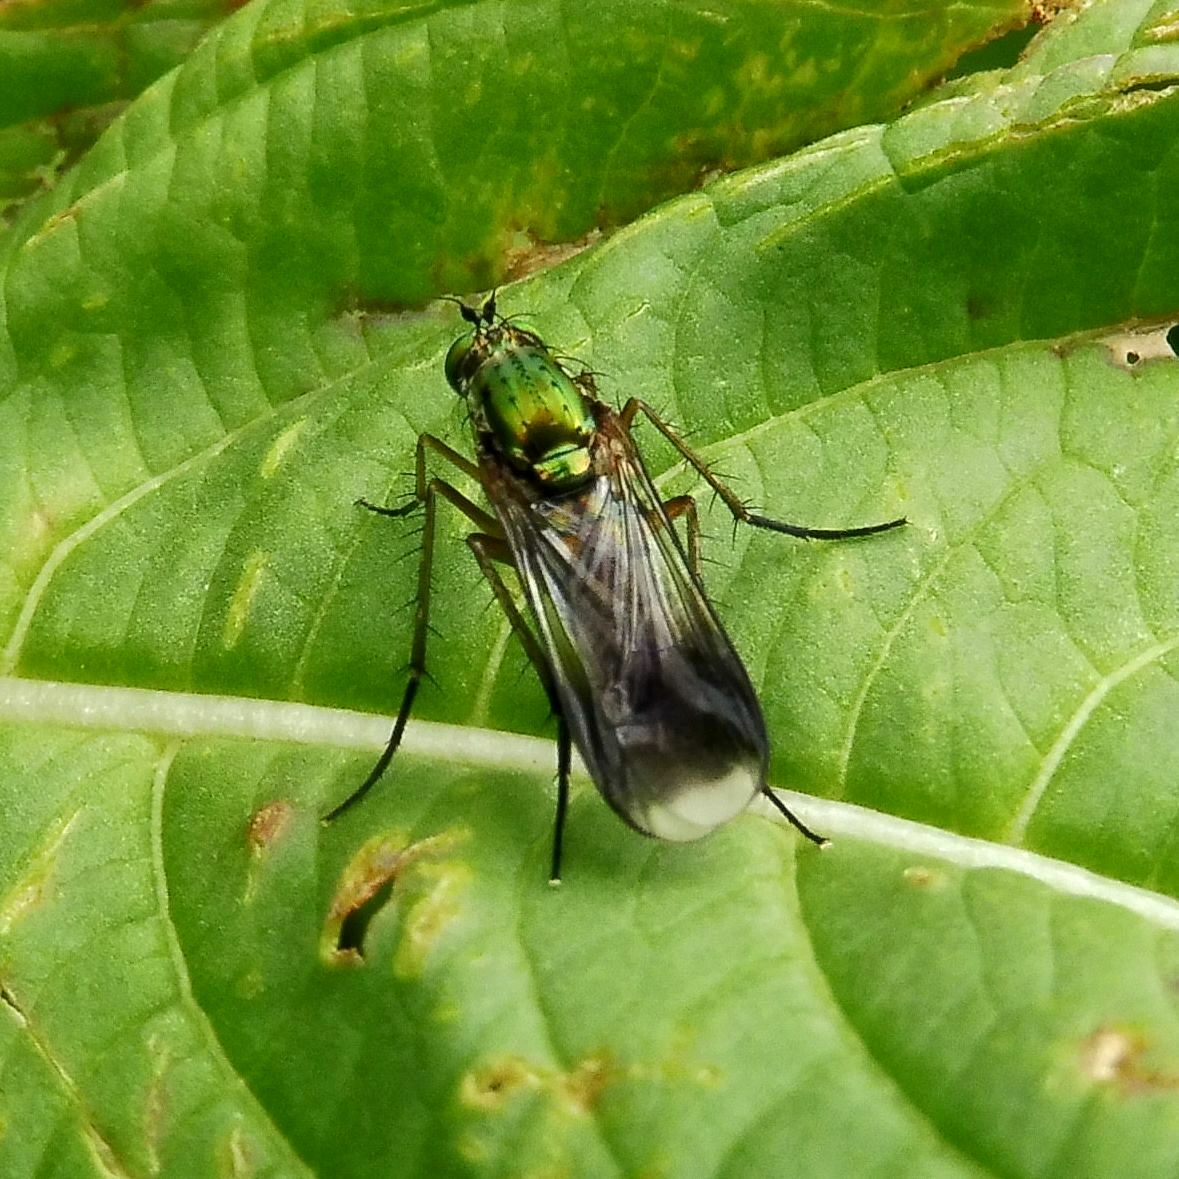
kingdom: Animalia
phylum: Arthropoda
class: Insecta
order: Diptera
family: Dolichopodidae
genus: Poecilobothrus
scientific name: Poecilobothrus nobilitatus
